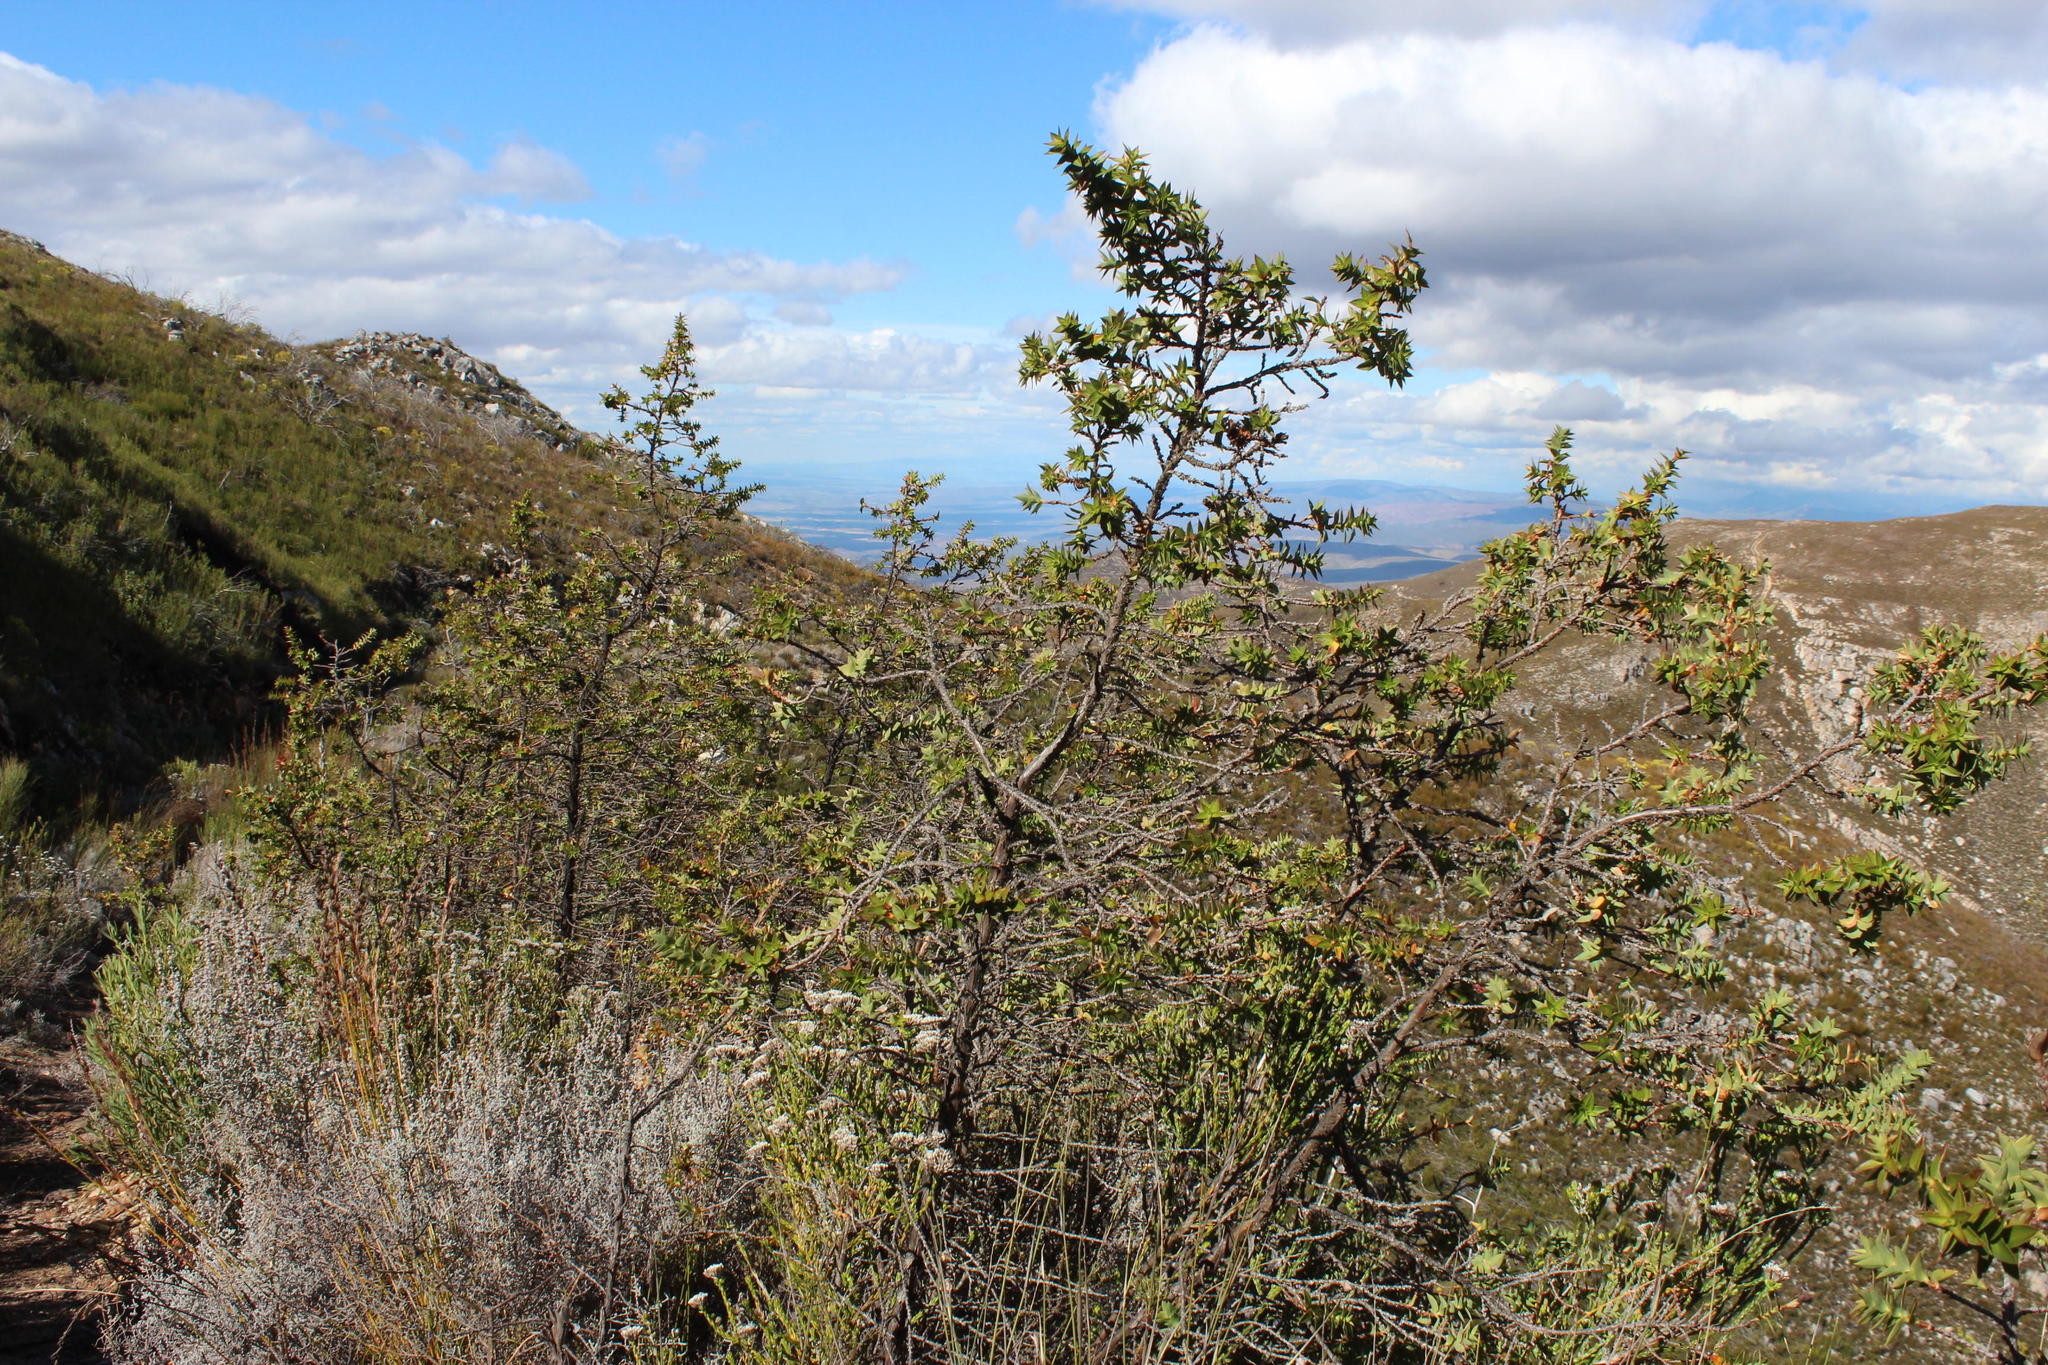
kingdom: Plantae
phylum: Tracheophyta
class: Magnoliopsida
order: Rosales
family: Rosaceae
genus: Cliffortia
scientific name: Cliffortia ilicifolia
